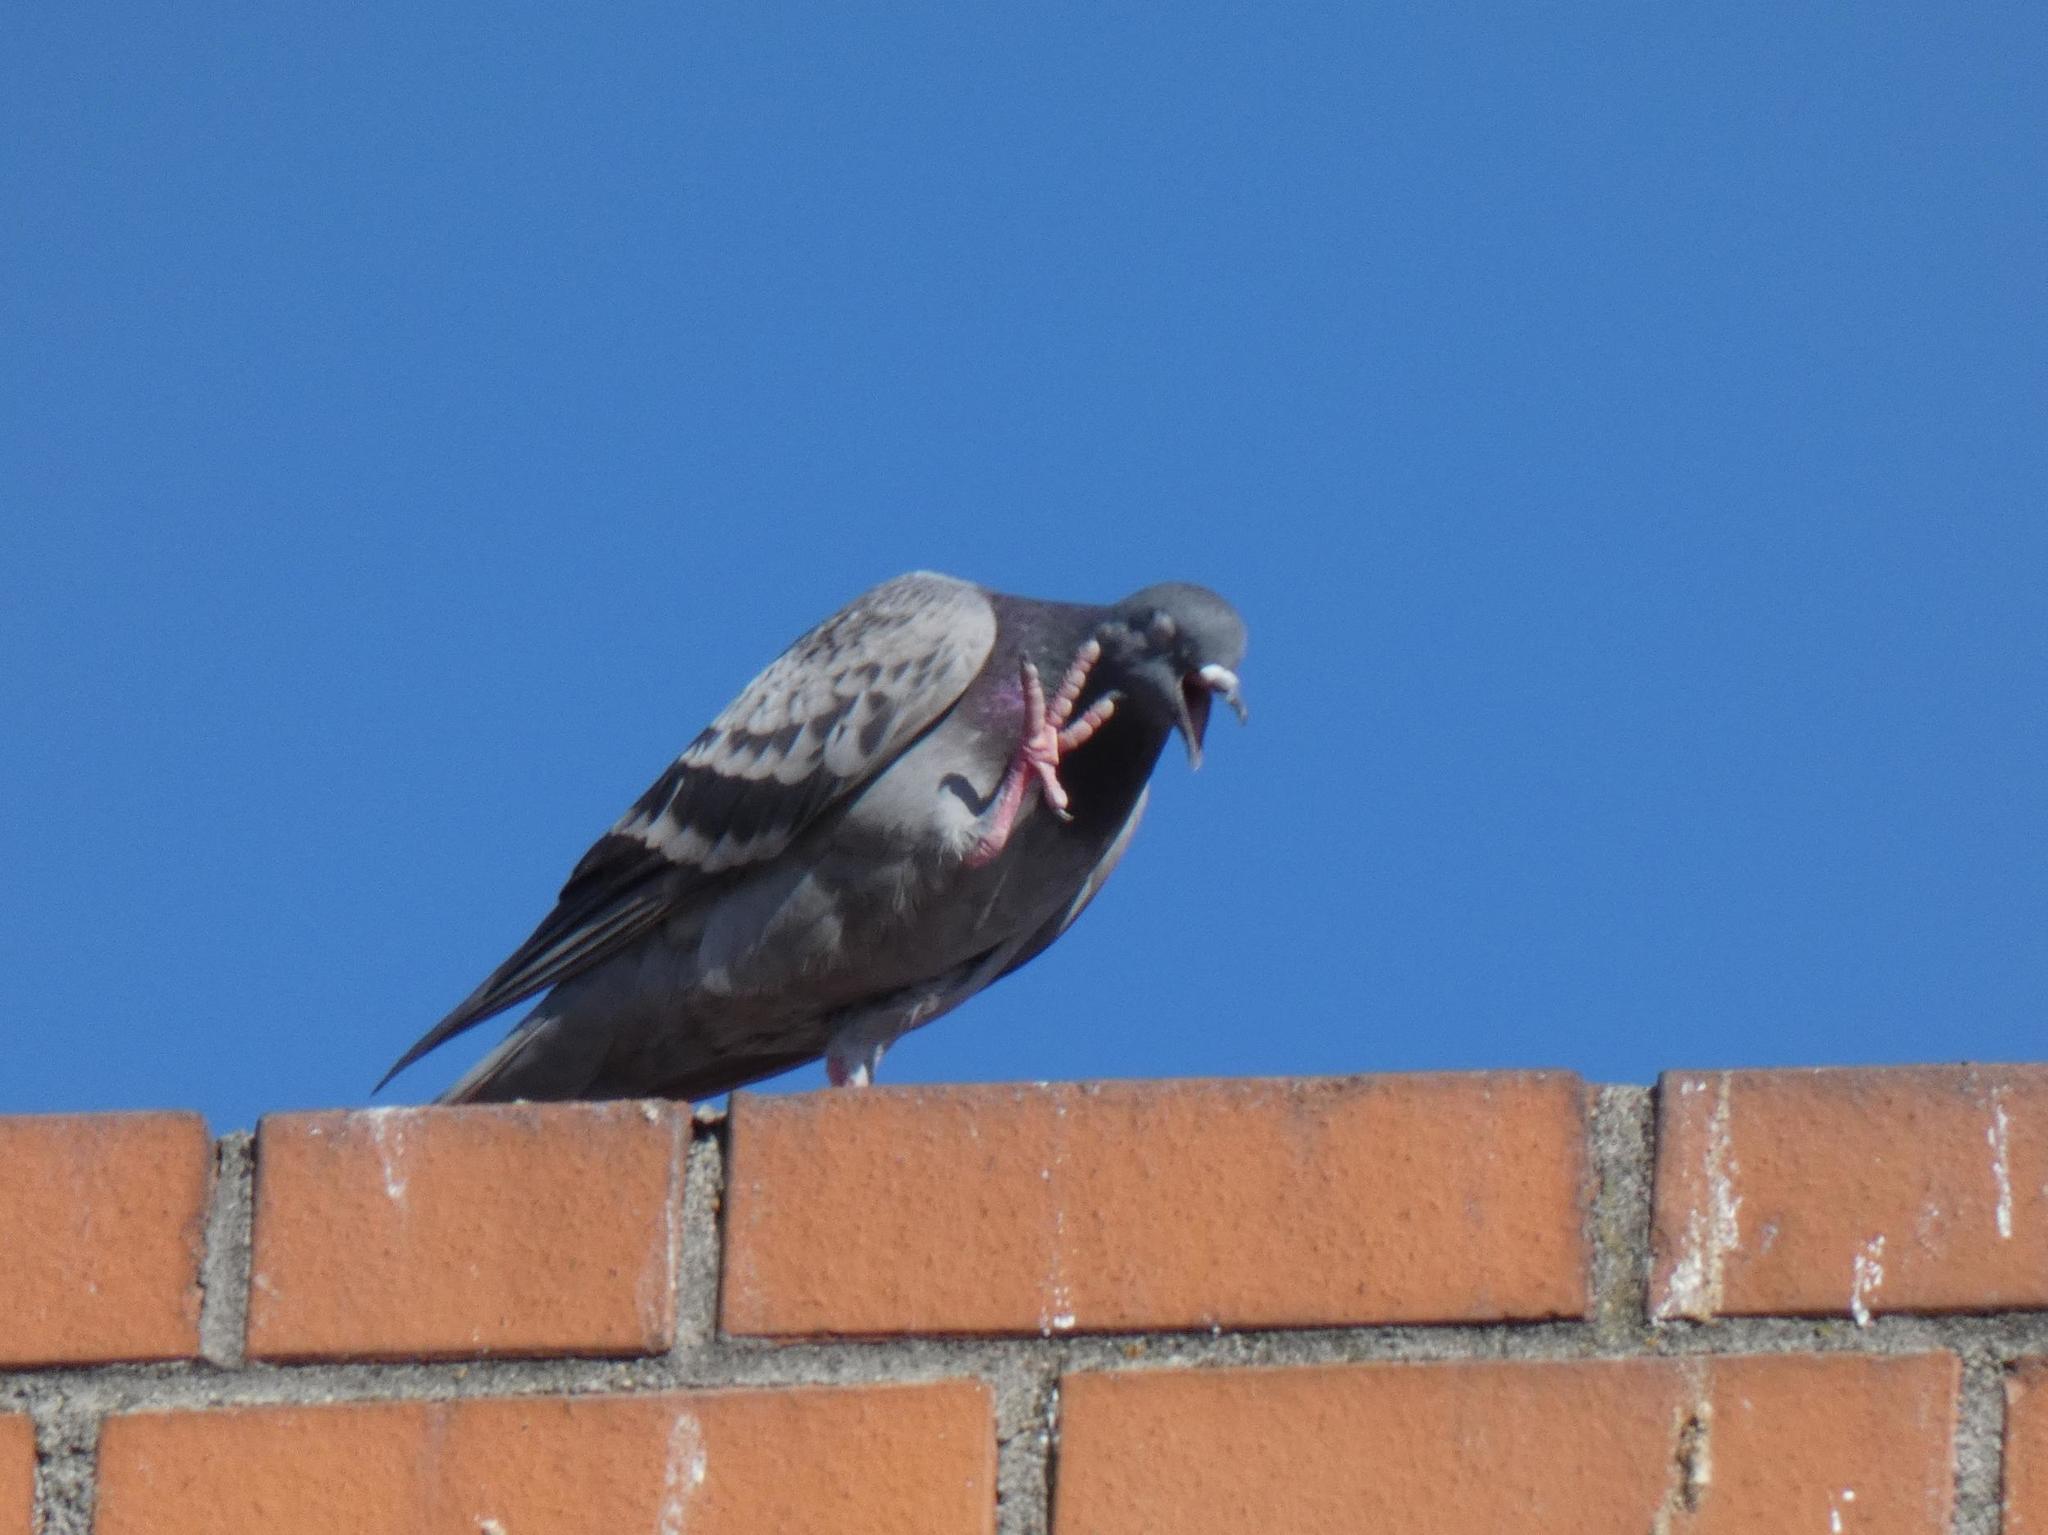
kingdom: Animalia
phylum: Chordata
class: Aves
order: Columbiformes
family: Columbidae
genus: Columba
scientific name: Columba livia
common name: Rock pigeon
